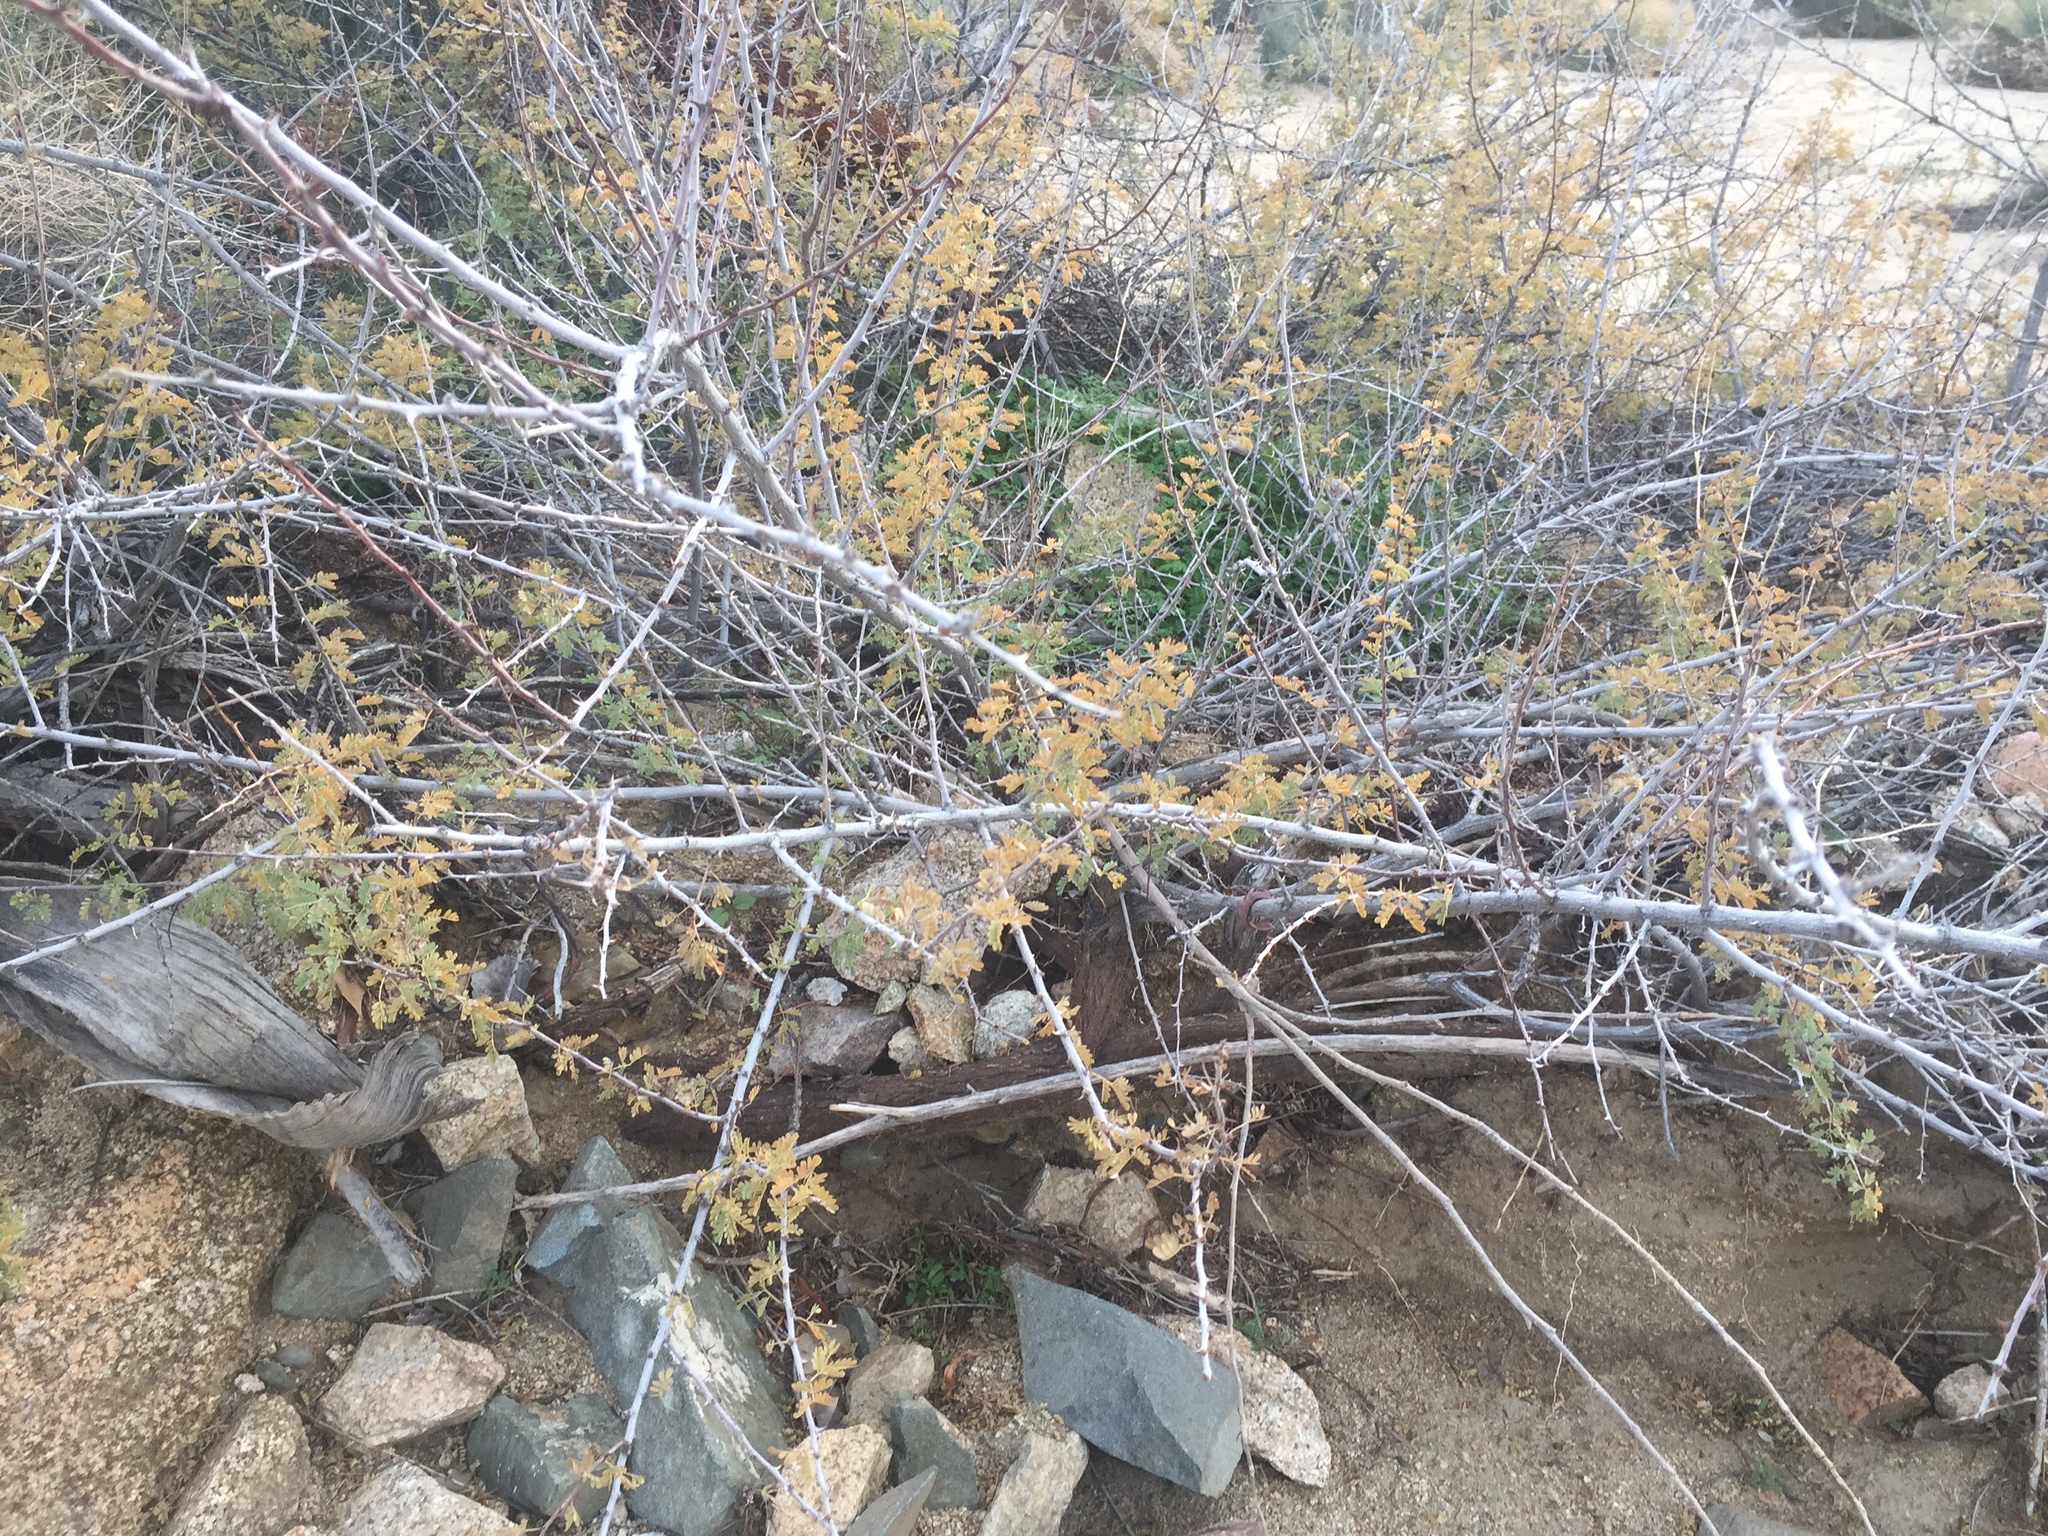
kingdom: Plantae
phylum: Tracheophyta
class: Magnoliopsida
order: Fabales
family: Fabaceae
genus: Senegalia
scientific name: Senegalia greggii
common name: Texas-mimosa
